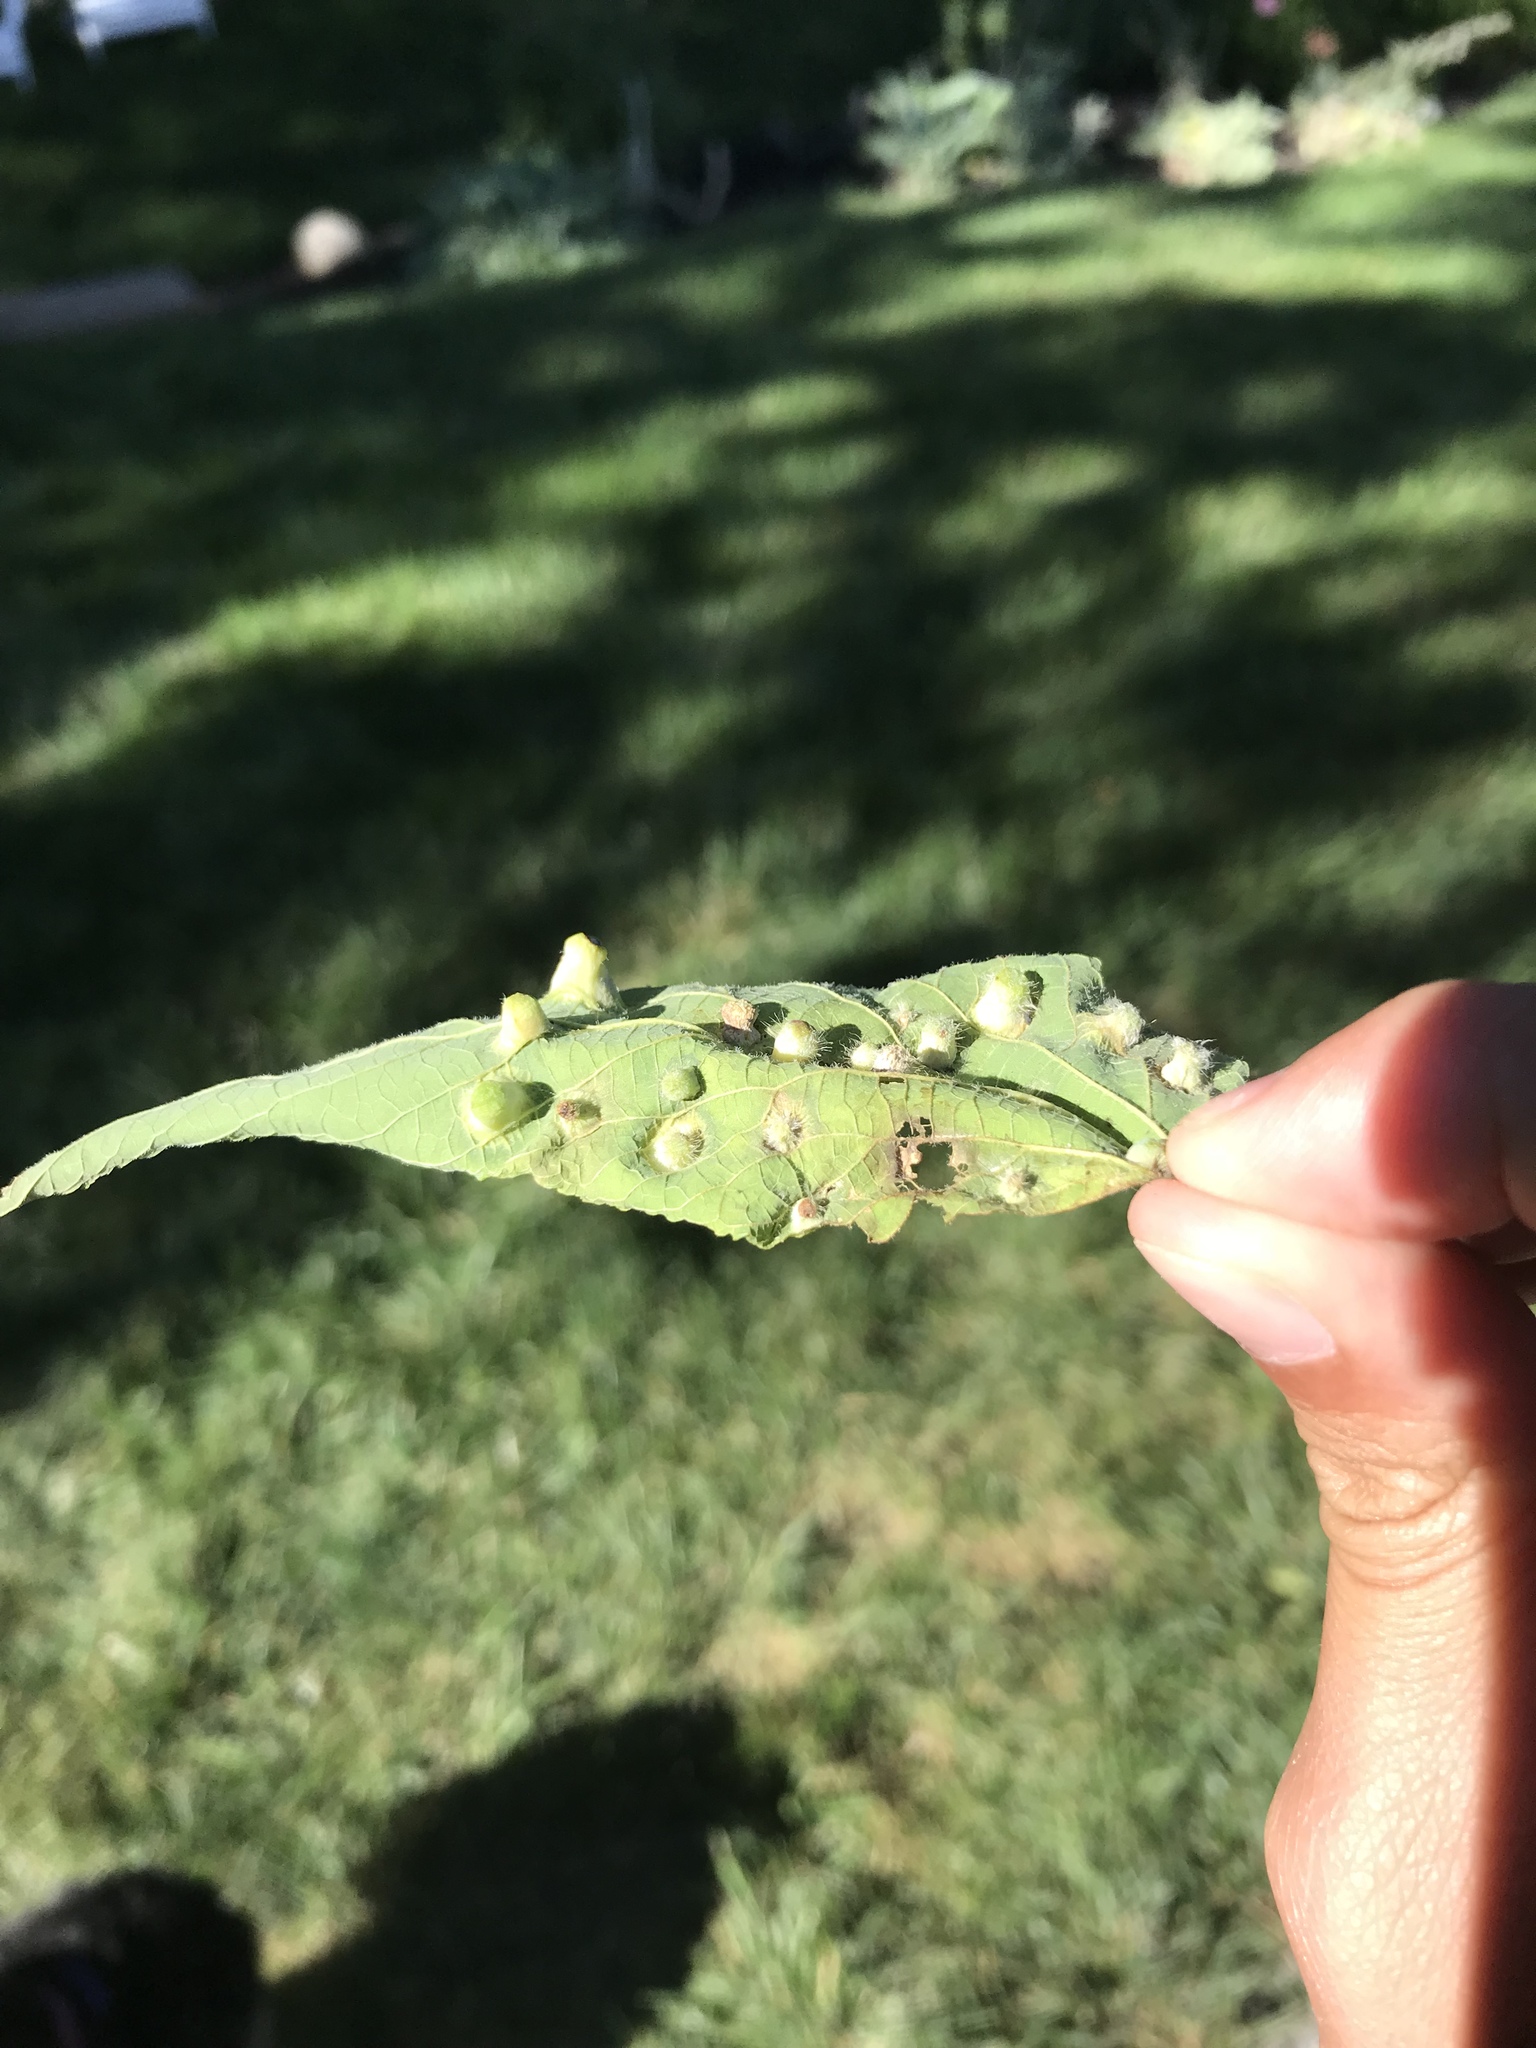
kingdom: Animalia
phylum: Arthropoda
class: Insecta
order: Hemiptera
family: Aphalaridae
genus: Pachypsylla
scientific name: Pachypsylla celtidismamma
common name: Hackberry nipplegall psyllid
